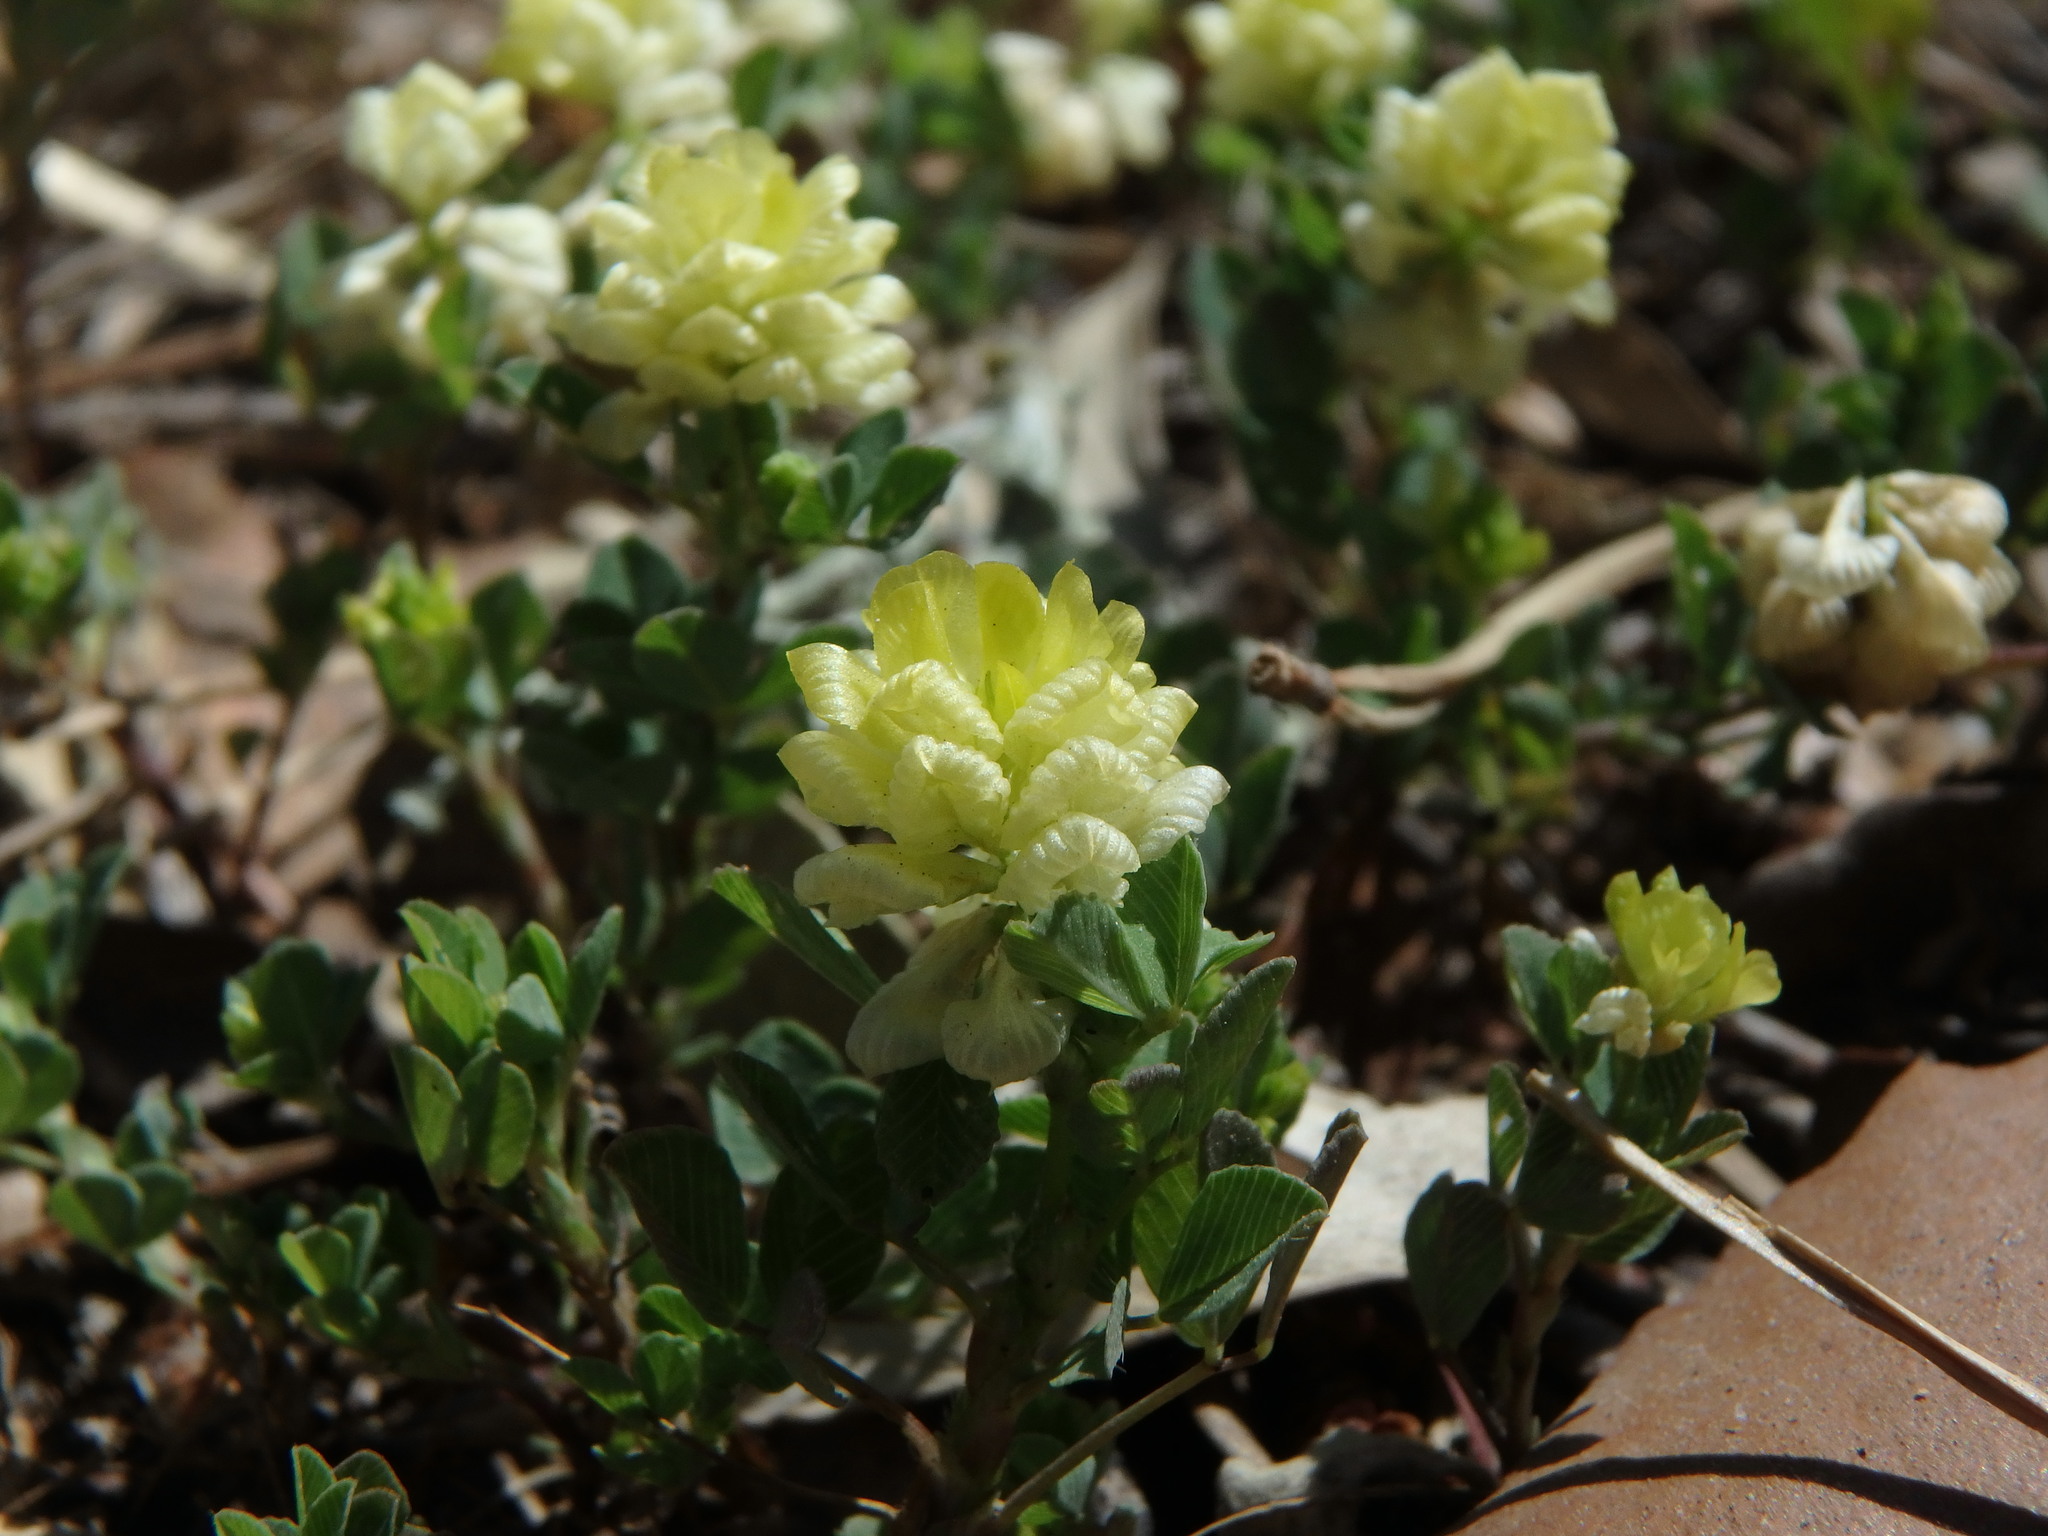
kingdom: Plantae
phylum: Tracheophyta
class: Magnoliopsida
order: Fabales
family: Fabaceae
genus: Trifolium
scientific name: Trifolium campestre
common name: Field clover
